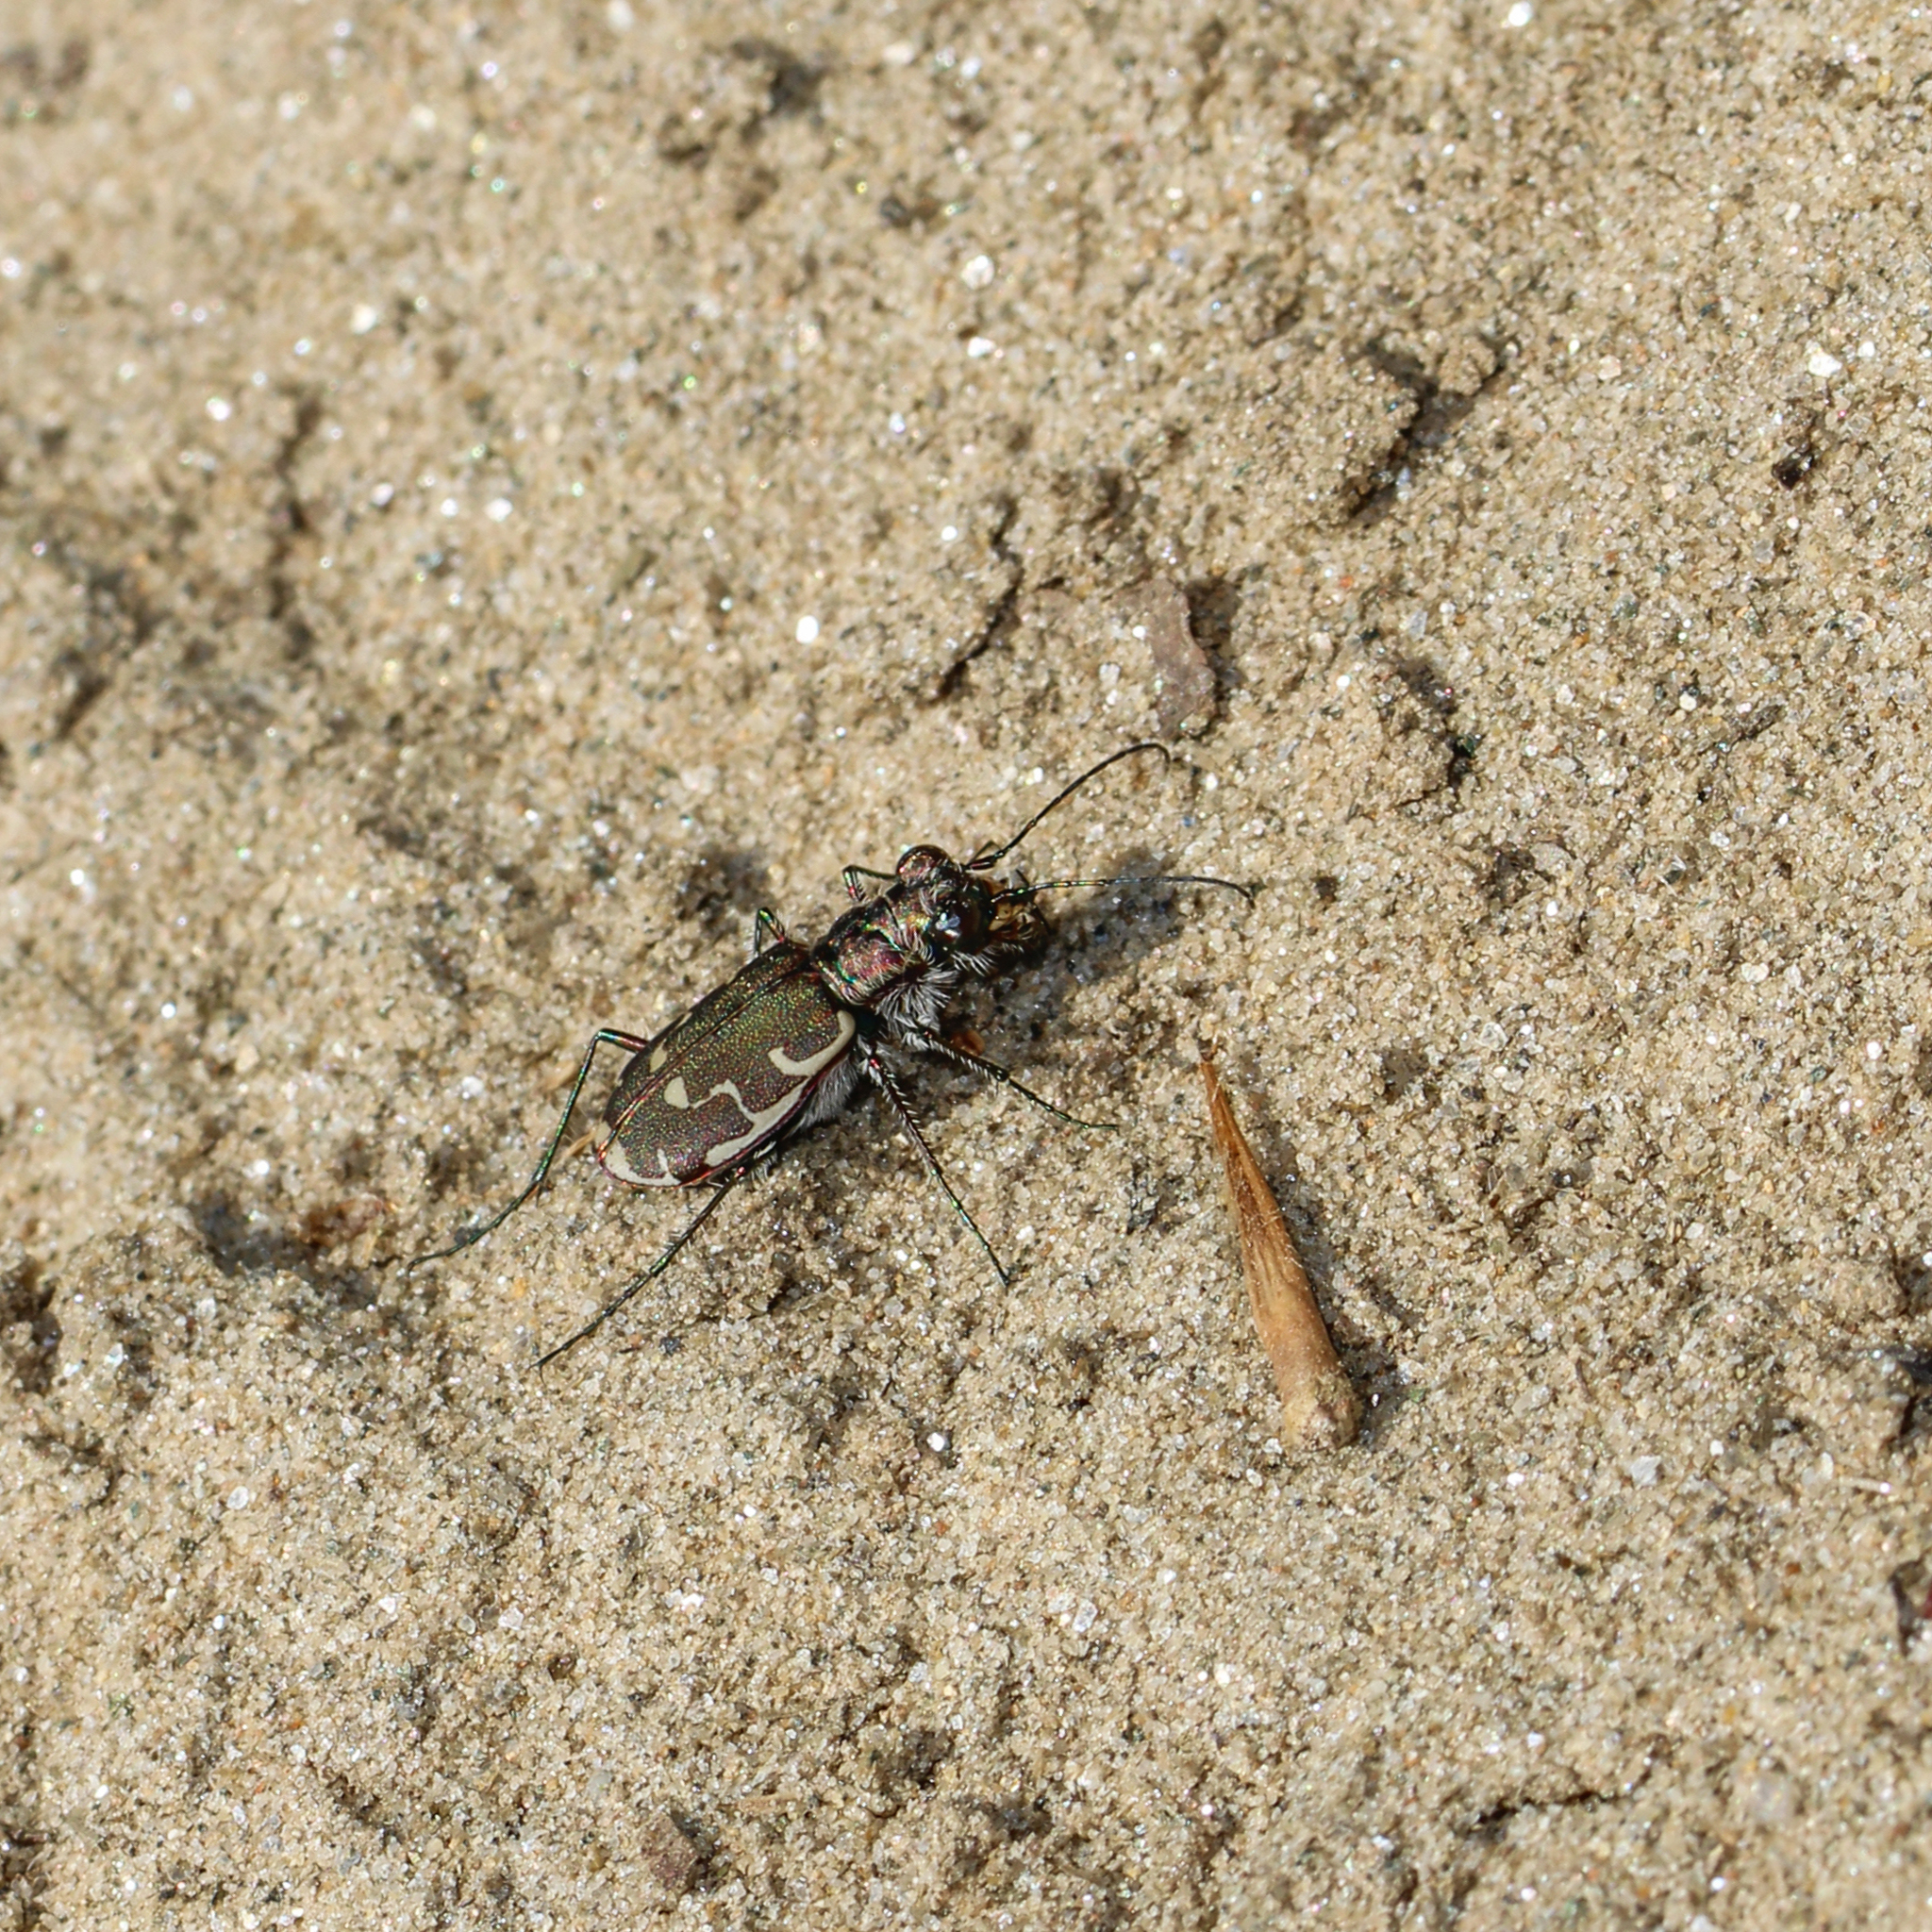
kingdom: Animalia
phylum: Arthropoda
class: Insecta
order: Coleoptera
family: Carabidae
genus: Cicindela
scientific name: Cicindela repanda
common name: Bronzed tiger beetle
